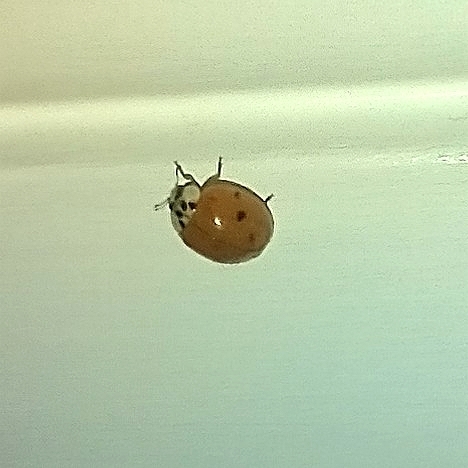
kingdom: Animalia
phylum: Arthropoda
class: Insecta
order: Coleoptera
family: Coccinellidae
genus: Harmonia
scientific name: Harmonia axyridis
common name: Harlequin ladybird
